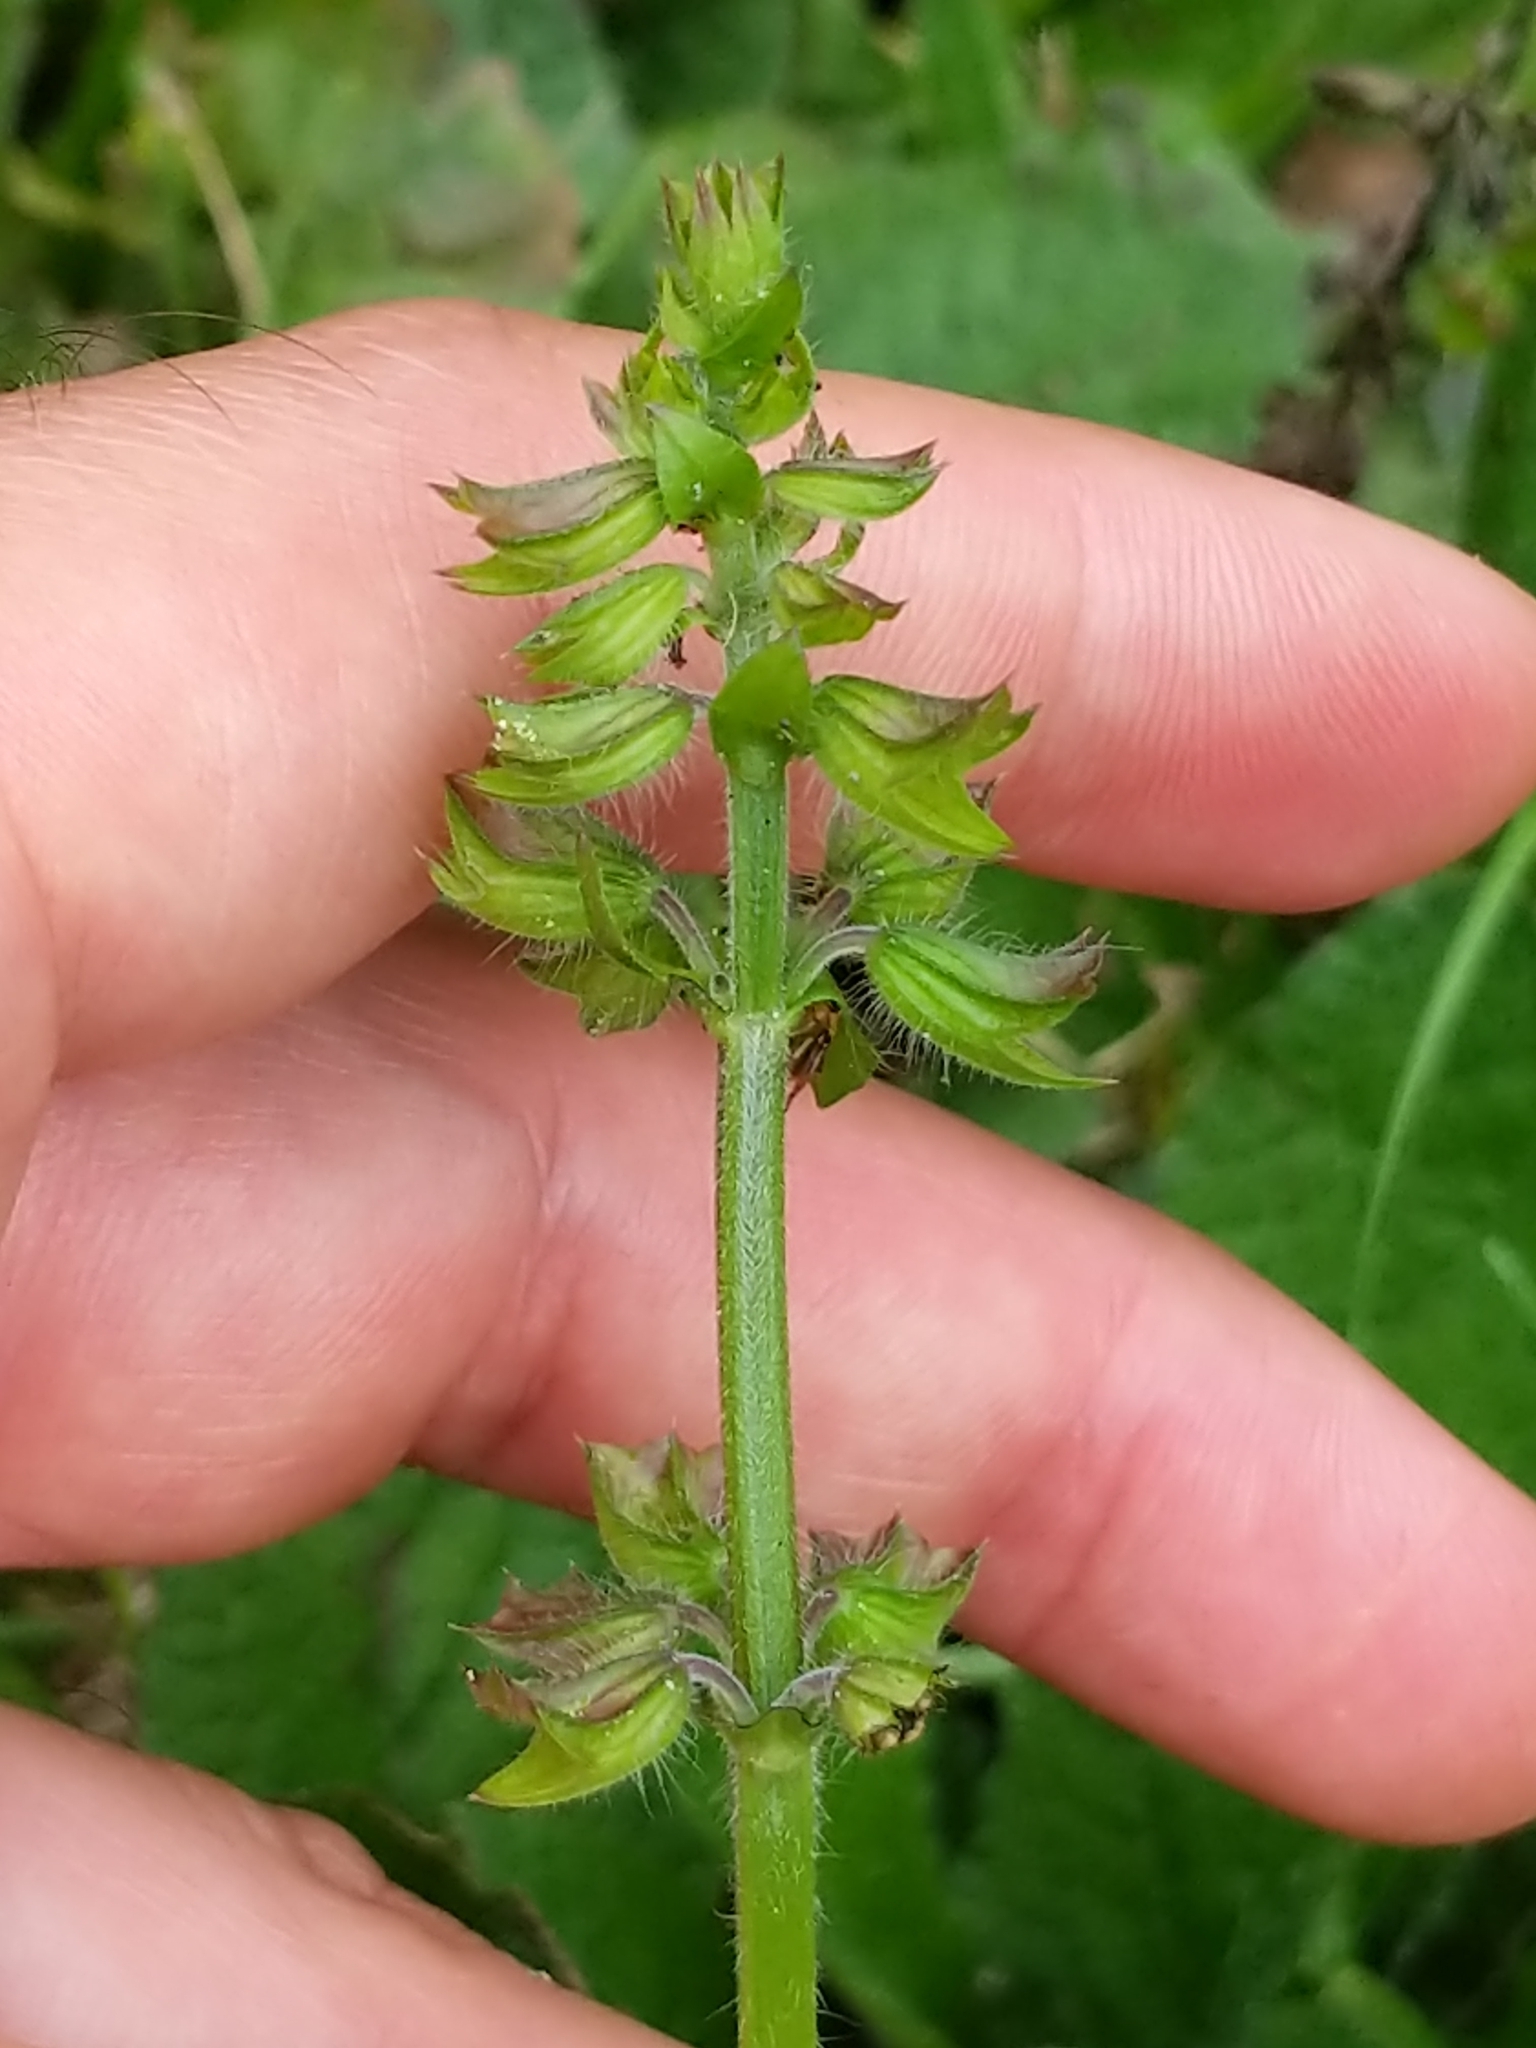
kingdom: Plantae
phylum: Tracheophyta
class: Magnoliopsida
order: Lamiales
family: Lamiaceae
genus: Salvia
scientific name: Salvia lyrata
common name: Cancerweed
